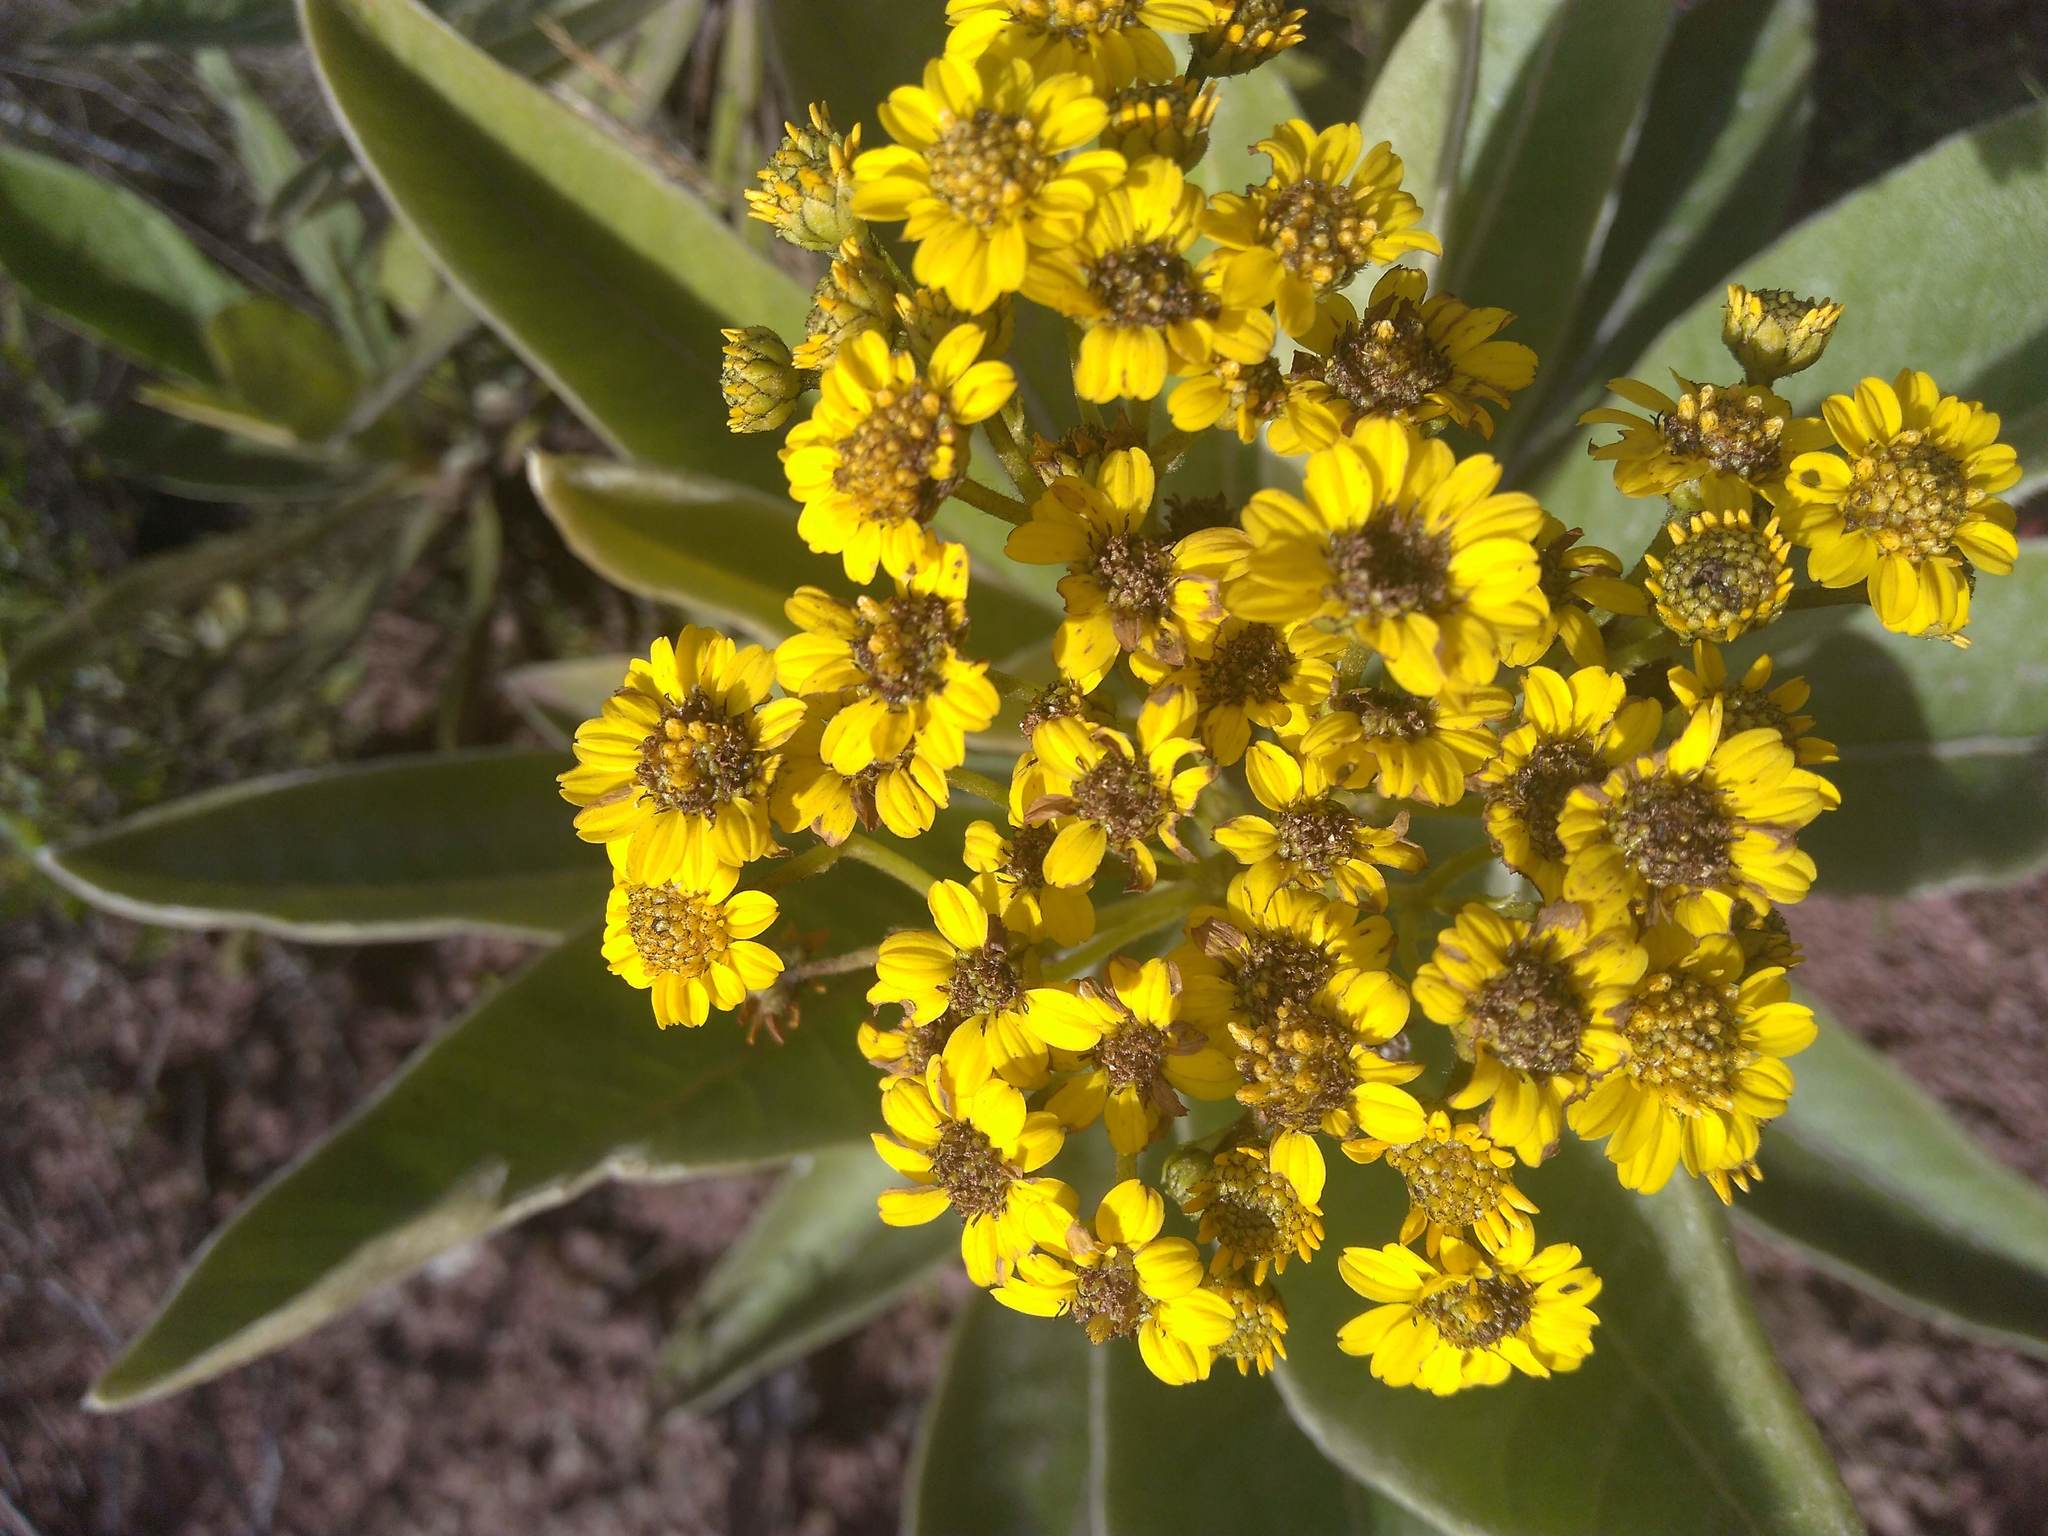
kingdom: Plantae
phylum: Tracheophyta
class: Magnoliopsida
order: Asterales
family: Asteraceae
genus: Espeletia
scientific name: Espeletia pleiochasia
